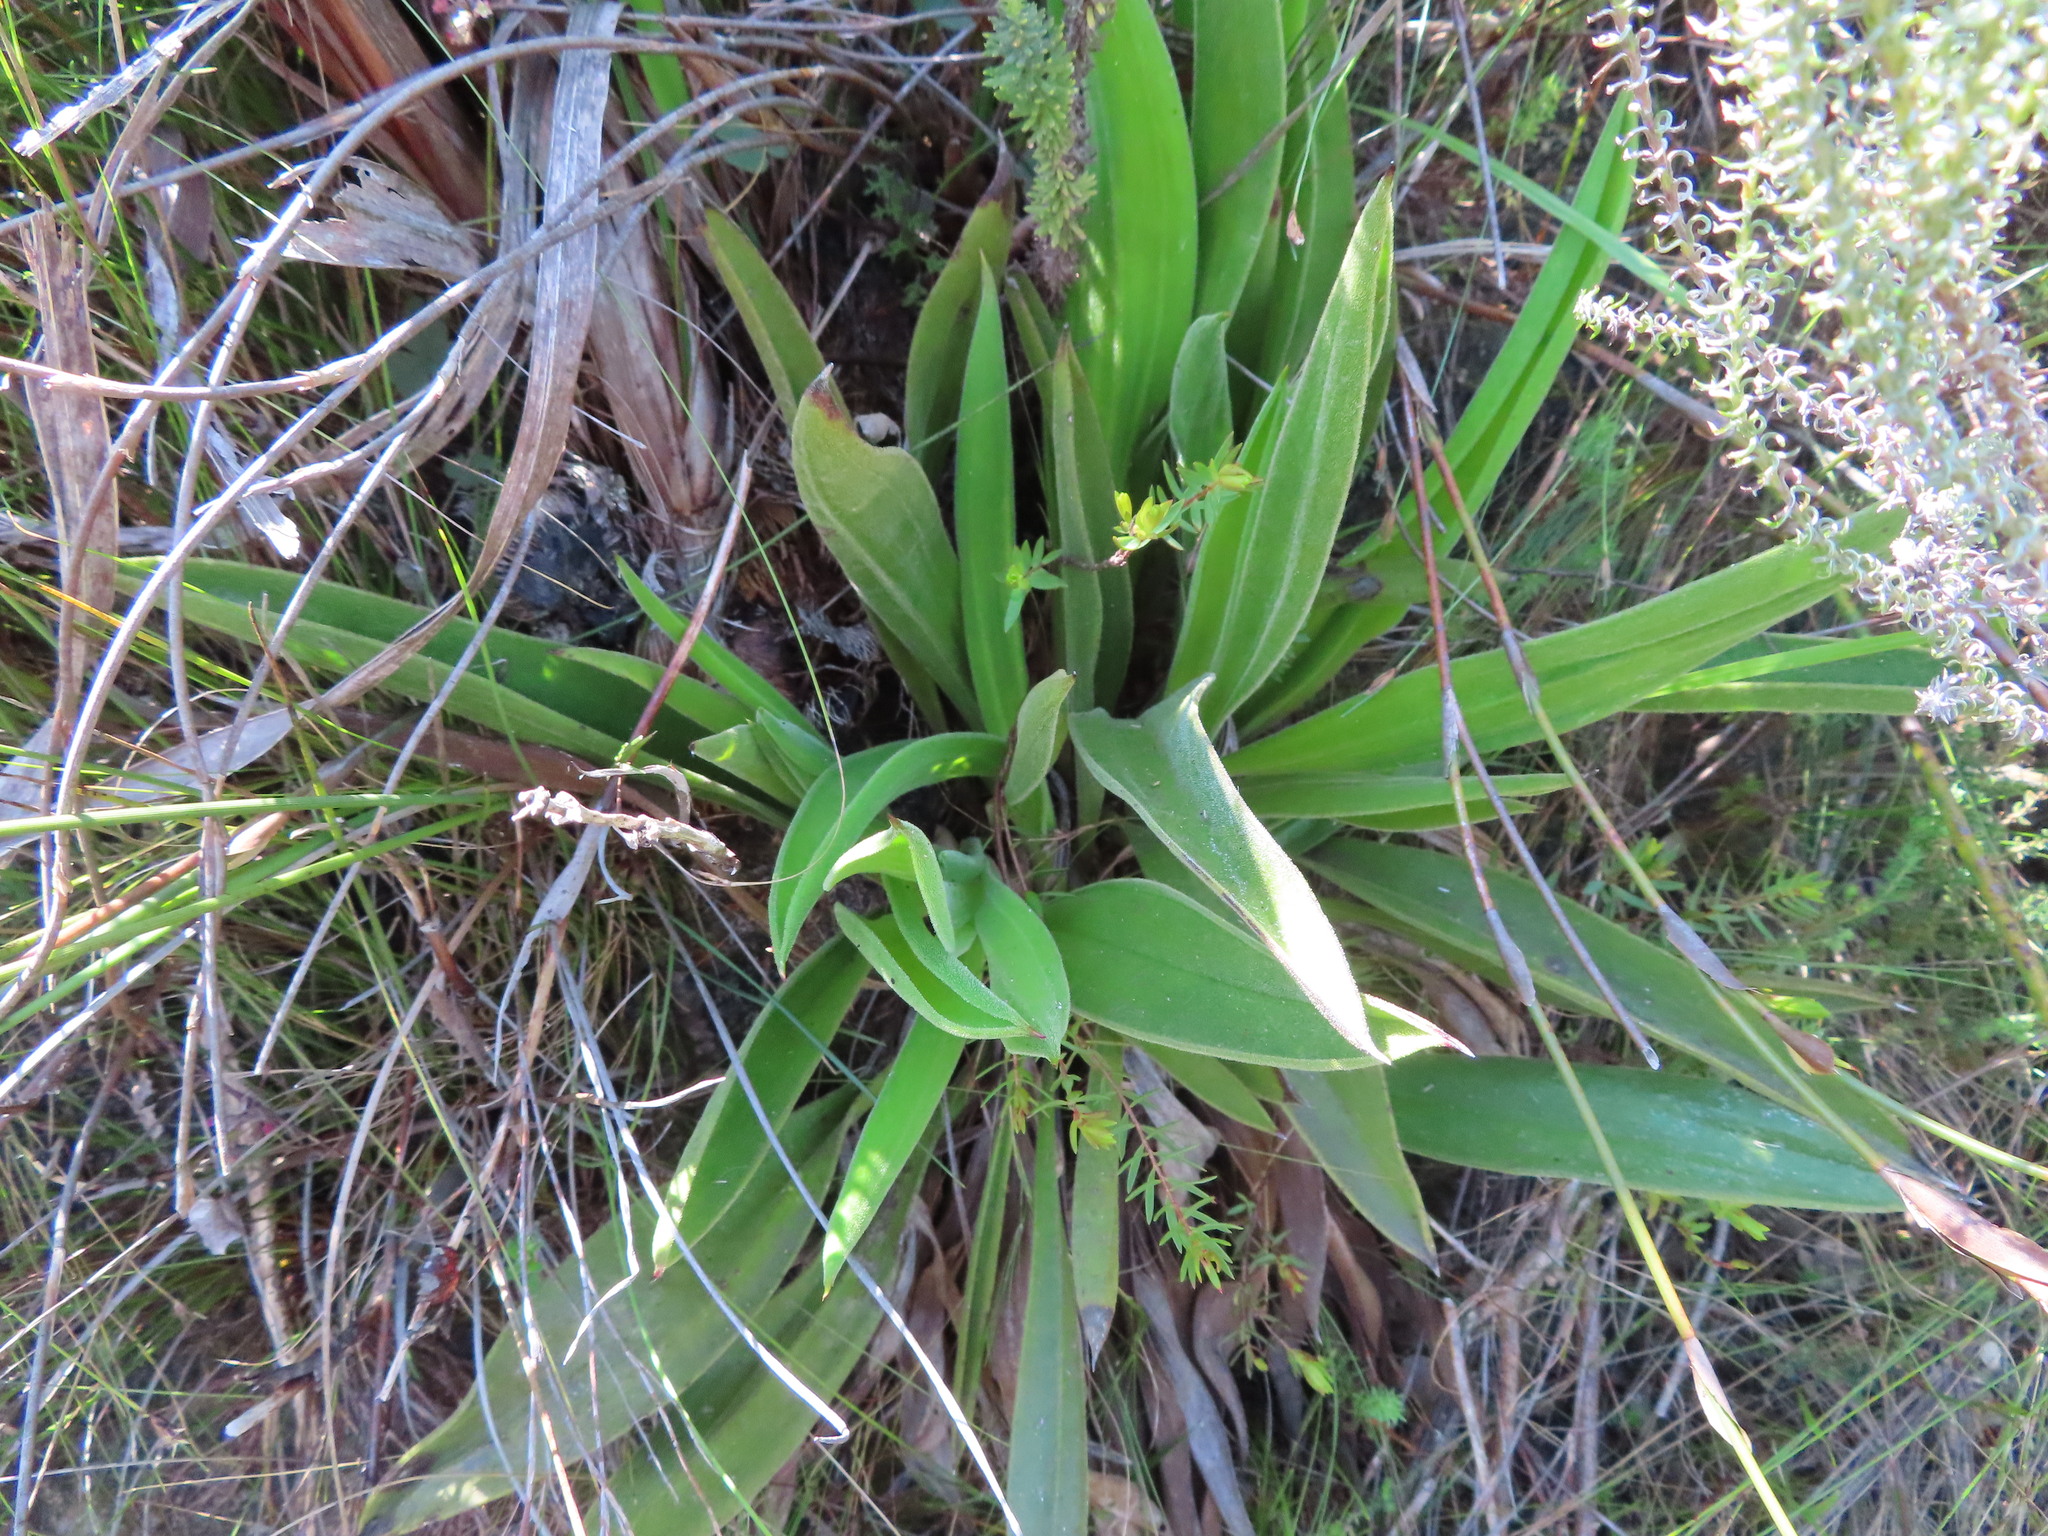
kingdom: Plantae
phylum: Tracheophyta
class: Magnoliopsida
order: Asterales
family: Asteraceae
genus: Corymbium
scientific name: Corymbium congestum
